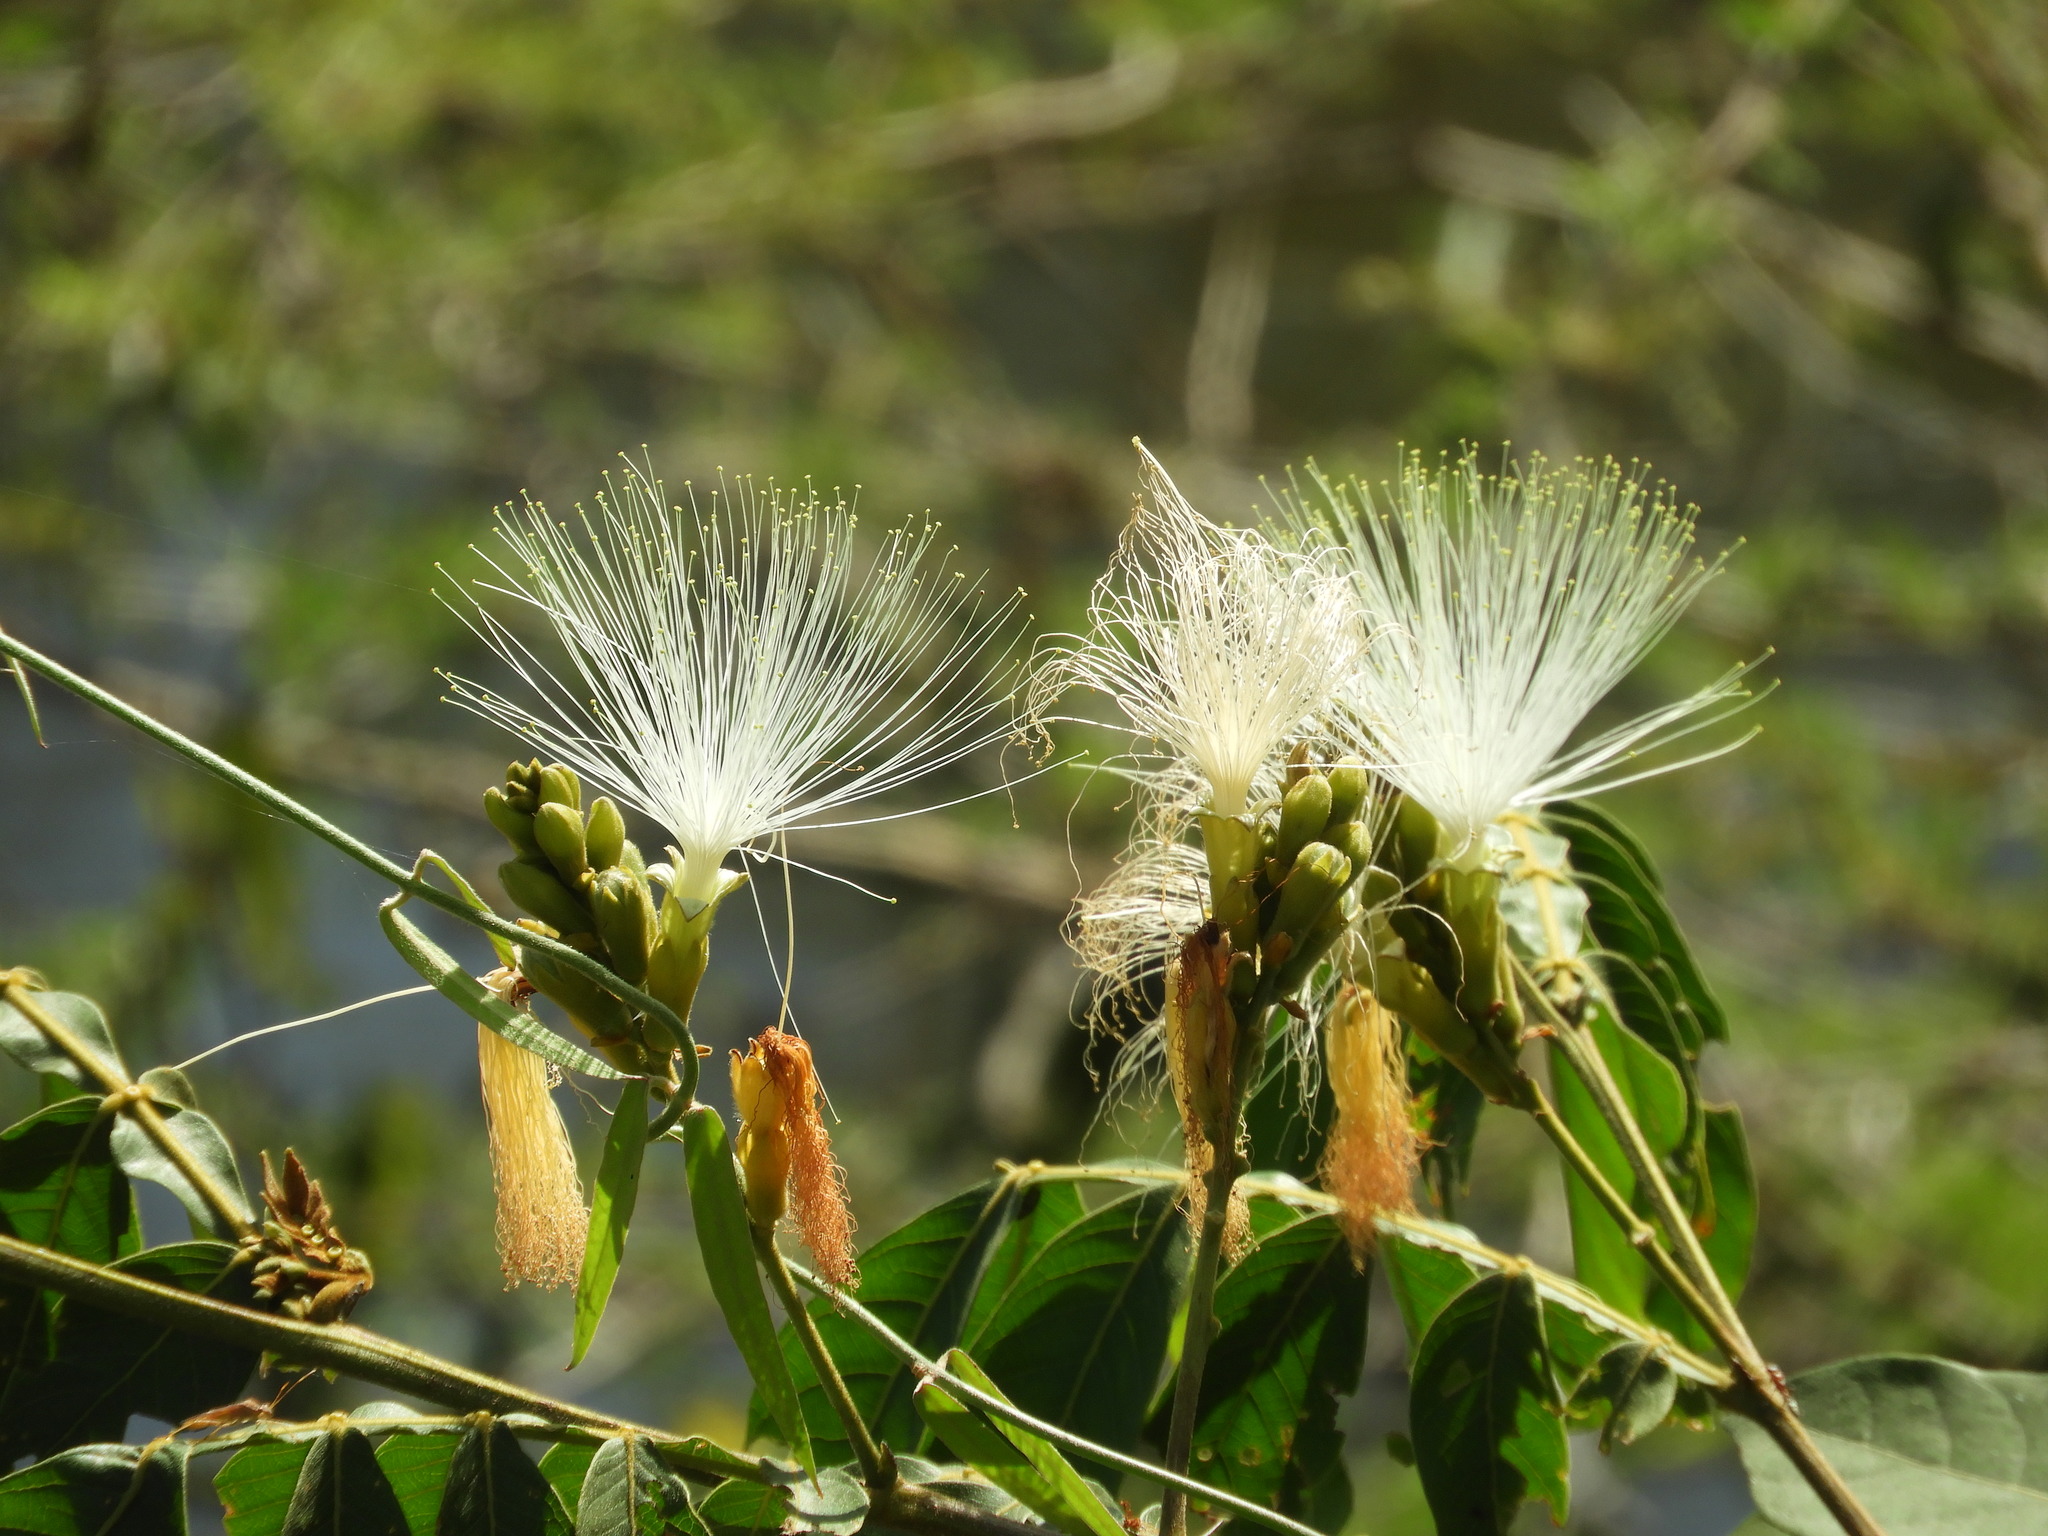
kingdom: Plantae
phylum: Tracheophyta
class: Magnoliopsida
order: Fabales
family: Fabaceae
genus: Inga
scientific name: Inga
